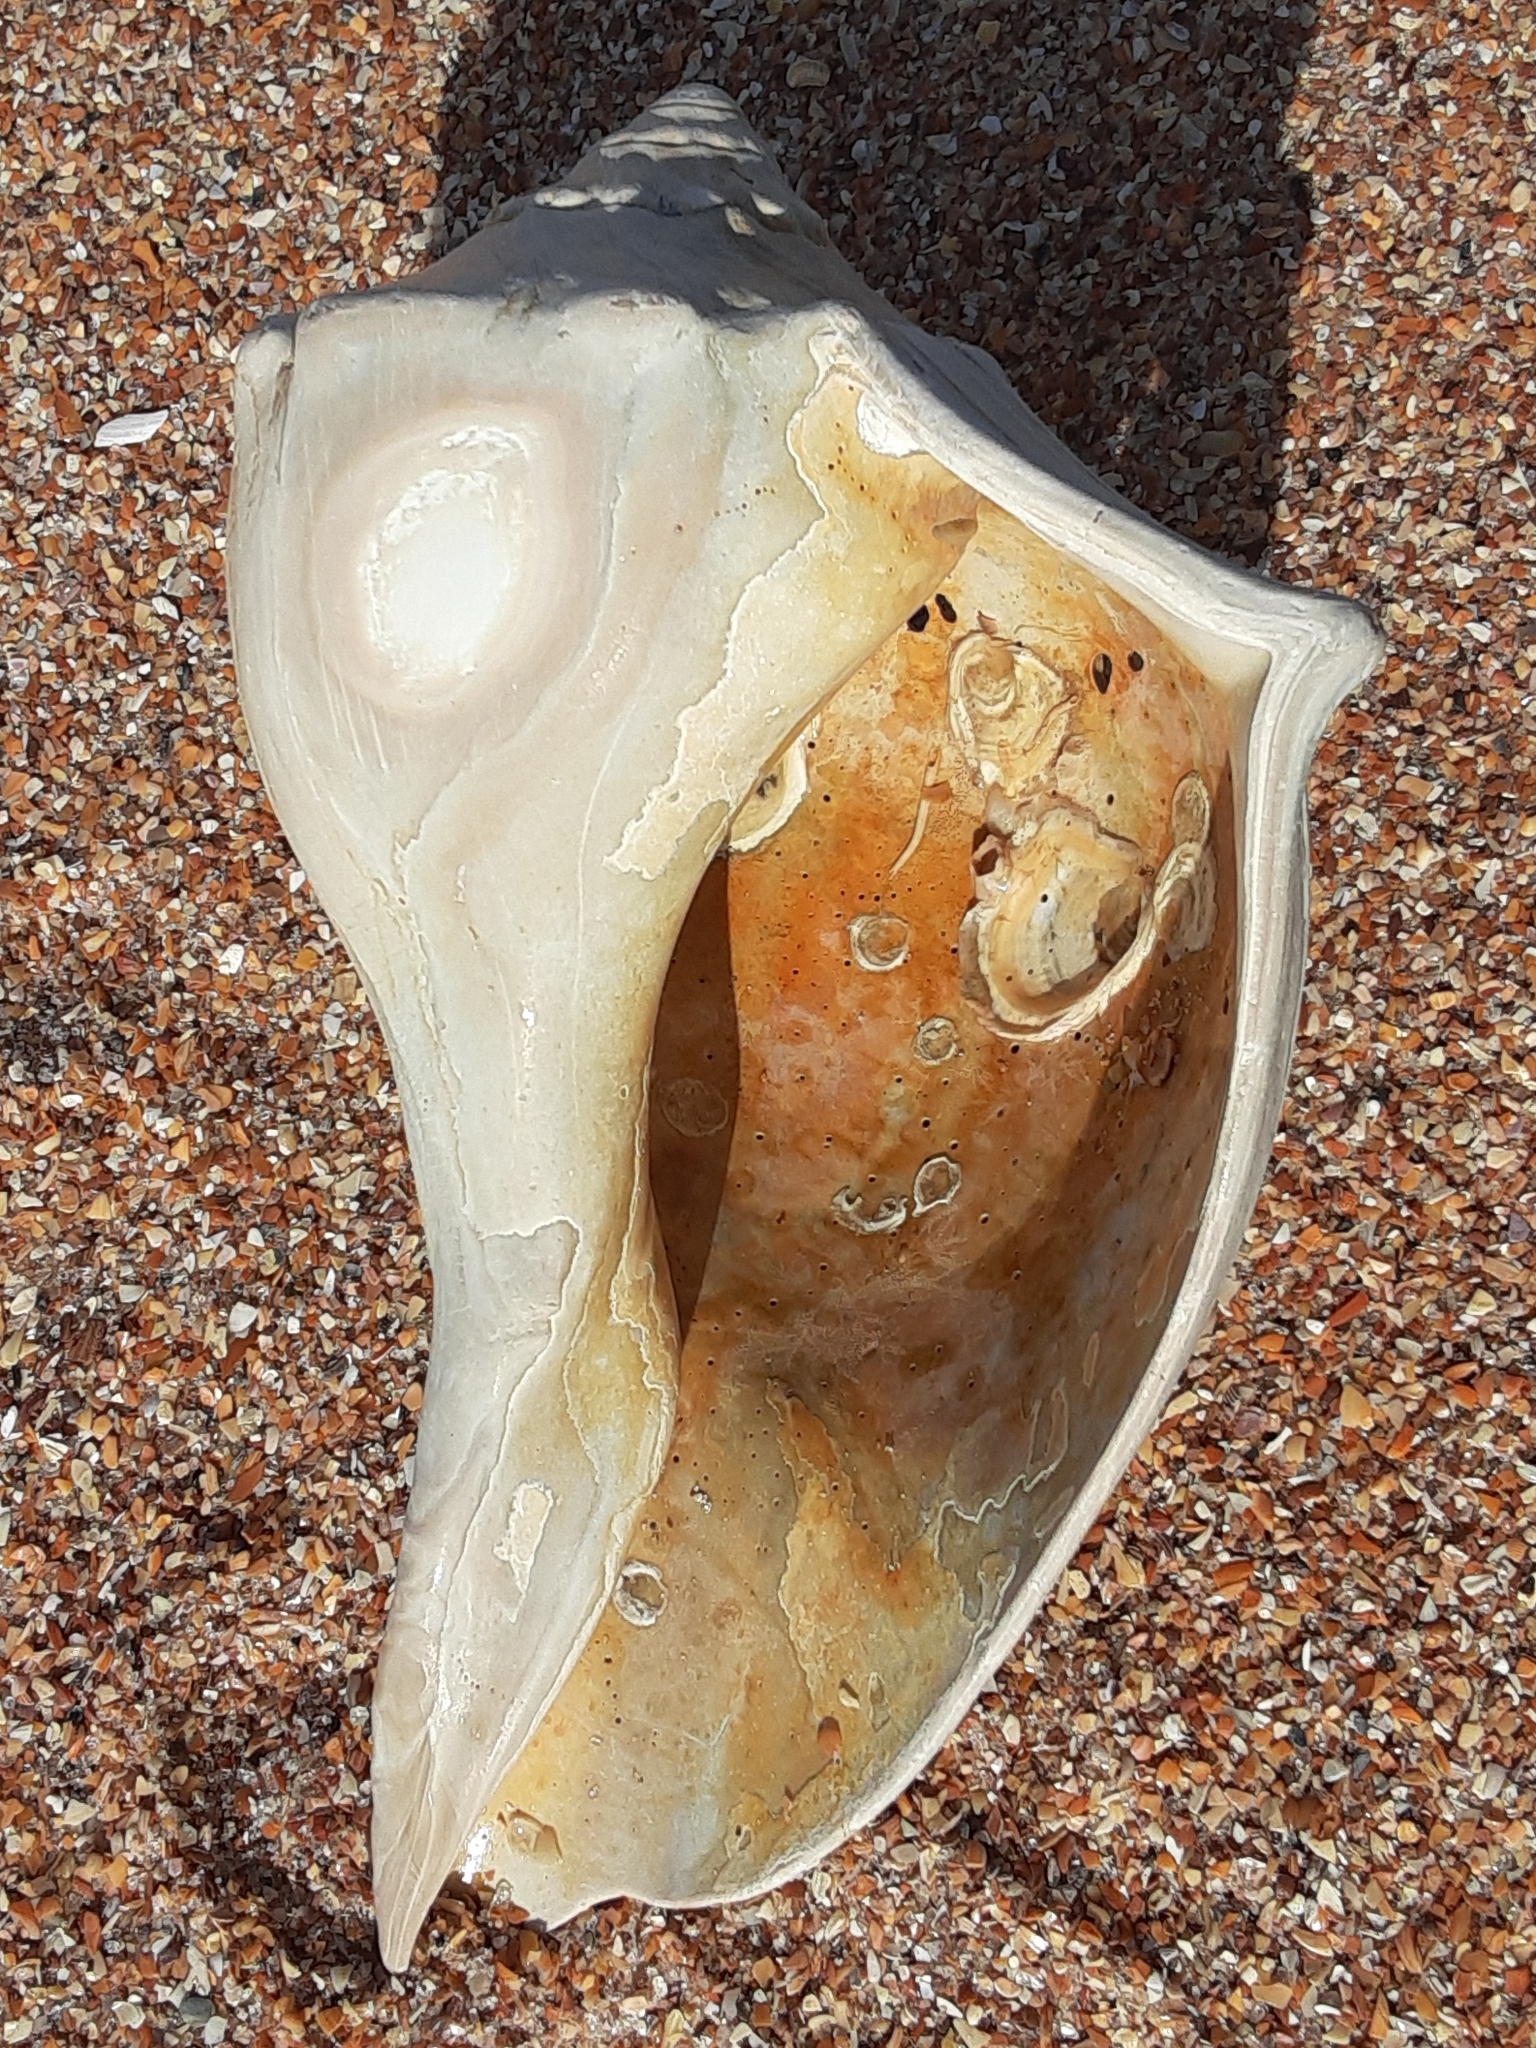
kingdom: Animalia
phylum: Mollusca
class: Gastropoda
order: Neogastropoda
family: Busyconidae
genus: Busycon
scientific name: Busycon carica
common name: Knobbed whelk
